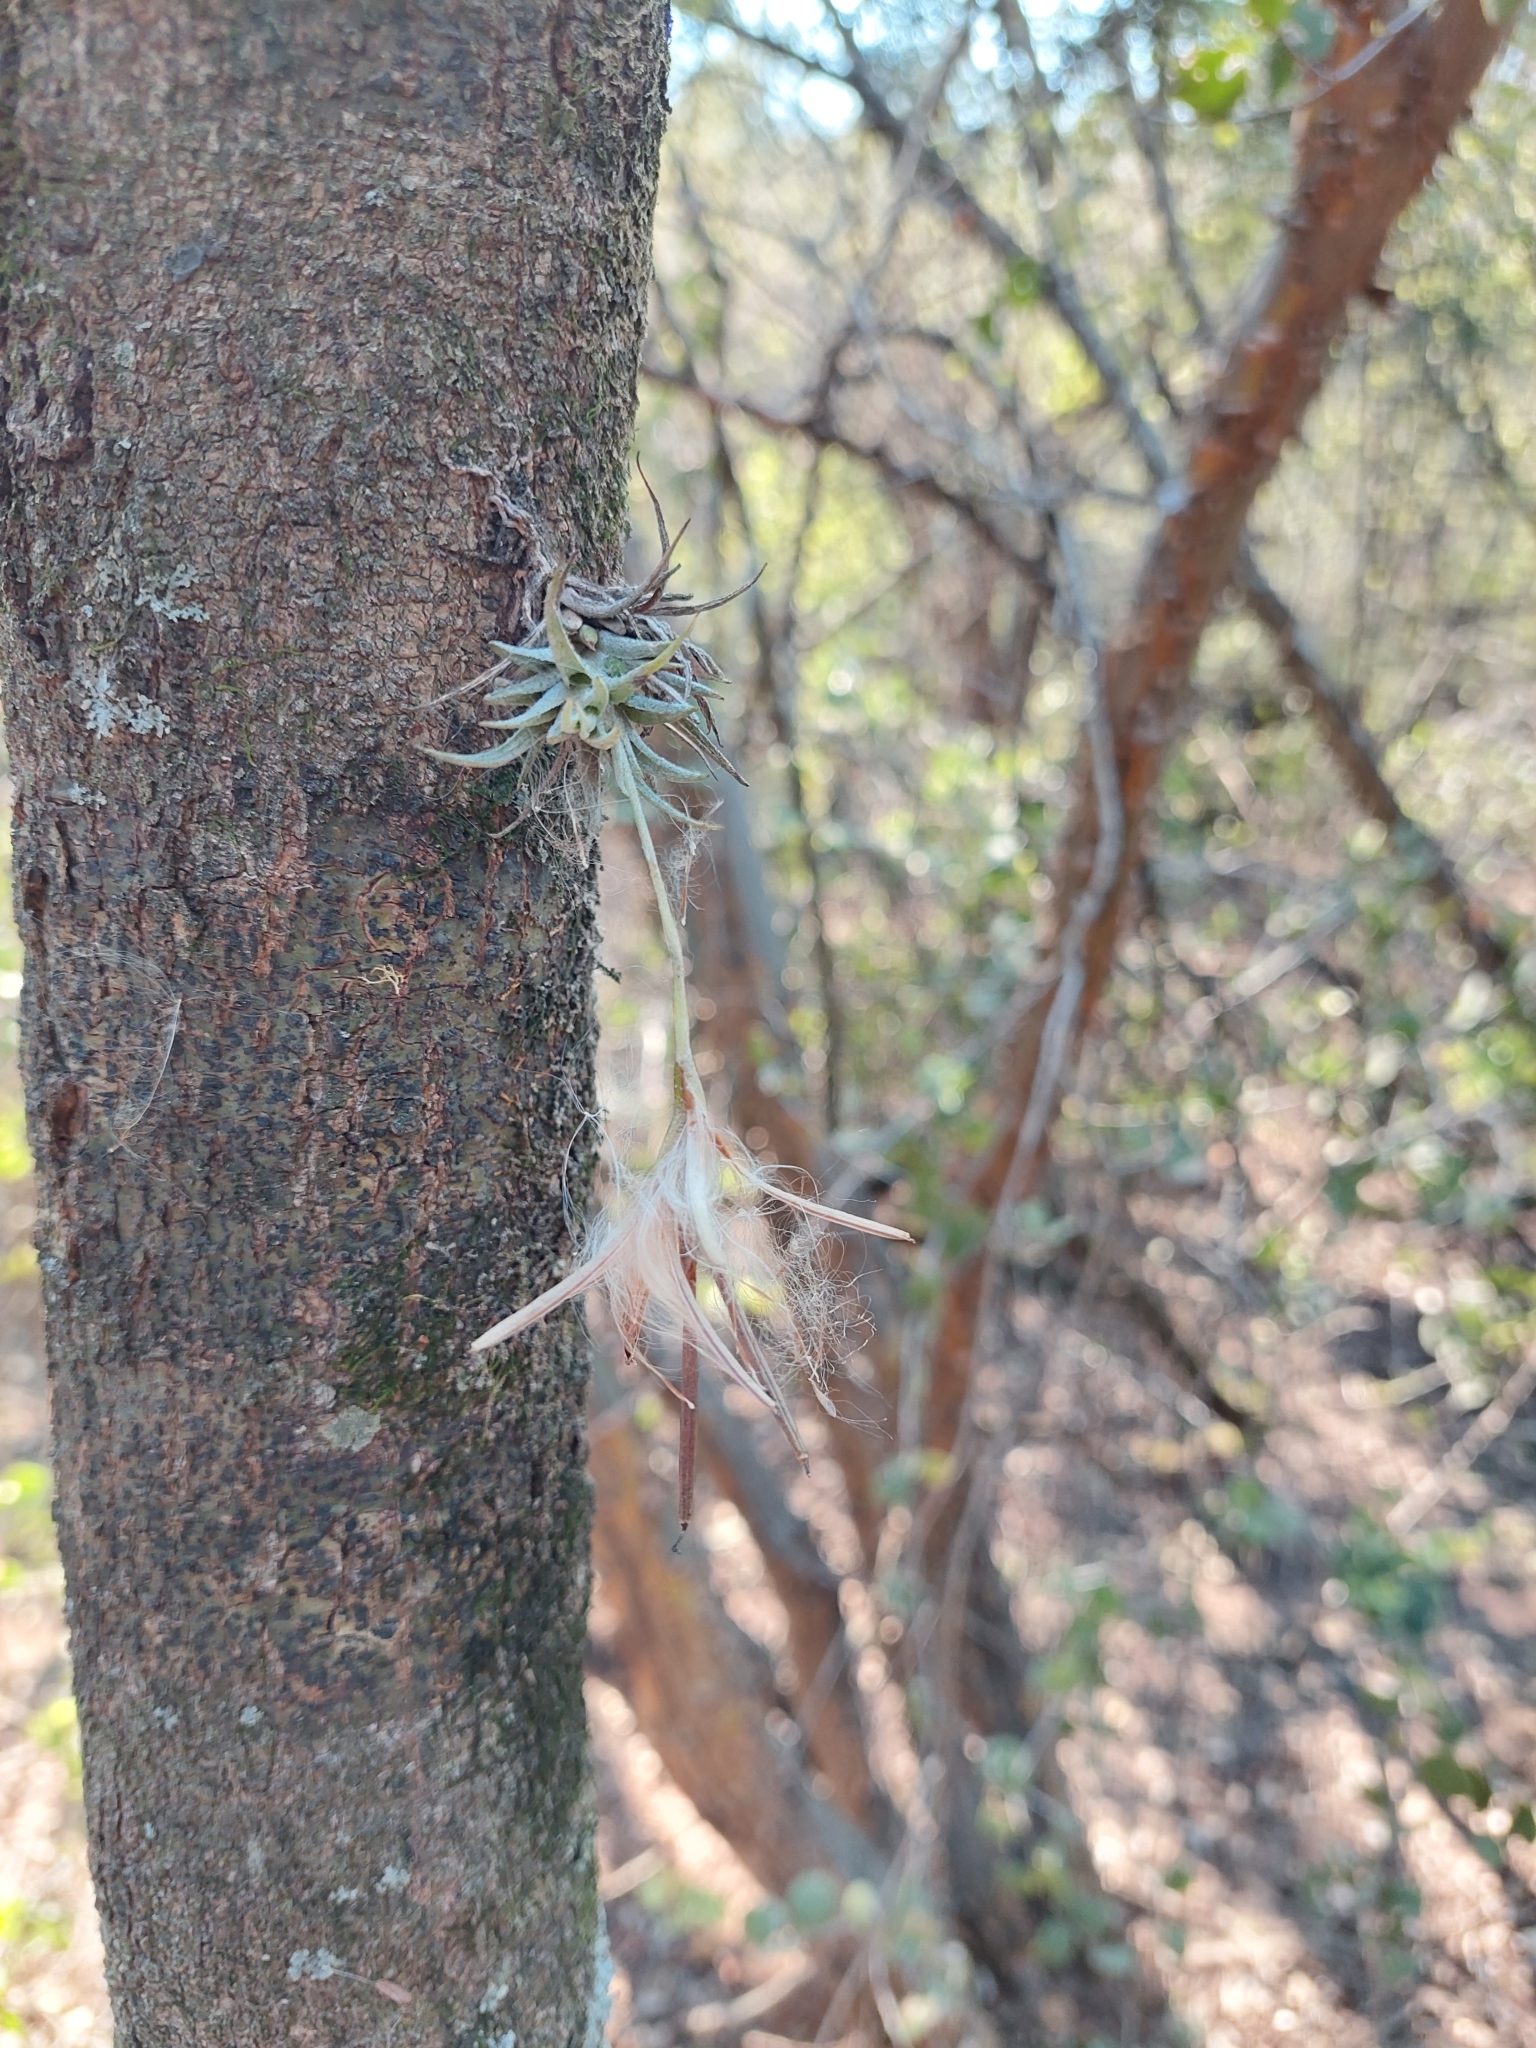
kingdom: Plantae
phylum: Tracheophyta
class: Liliopsida
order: Poales
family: Bromeliaceae
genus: Tillandsia
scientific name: Tillandsia loliacea
